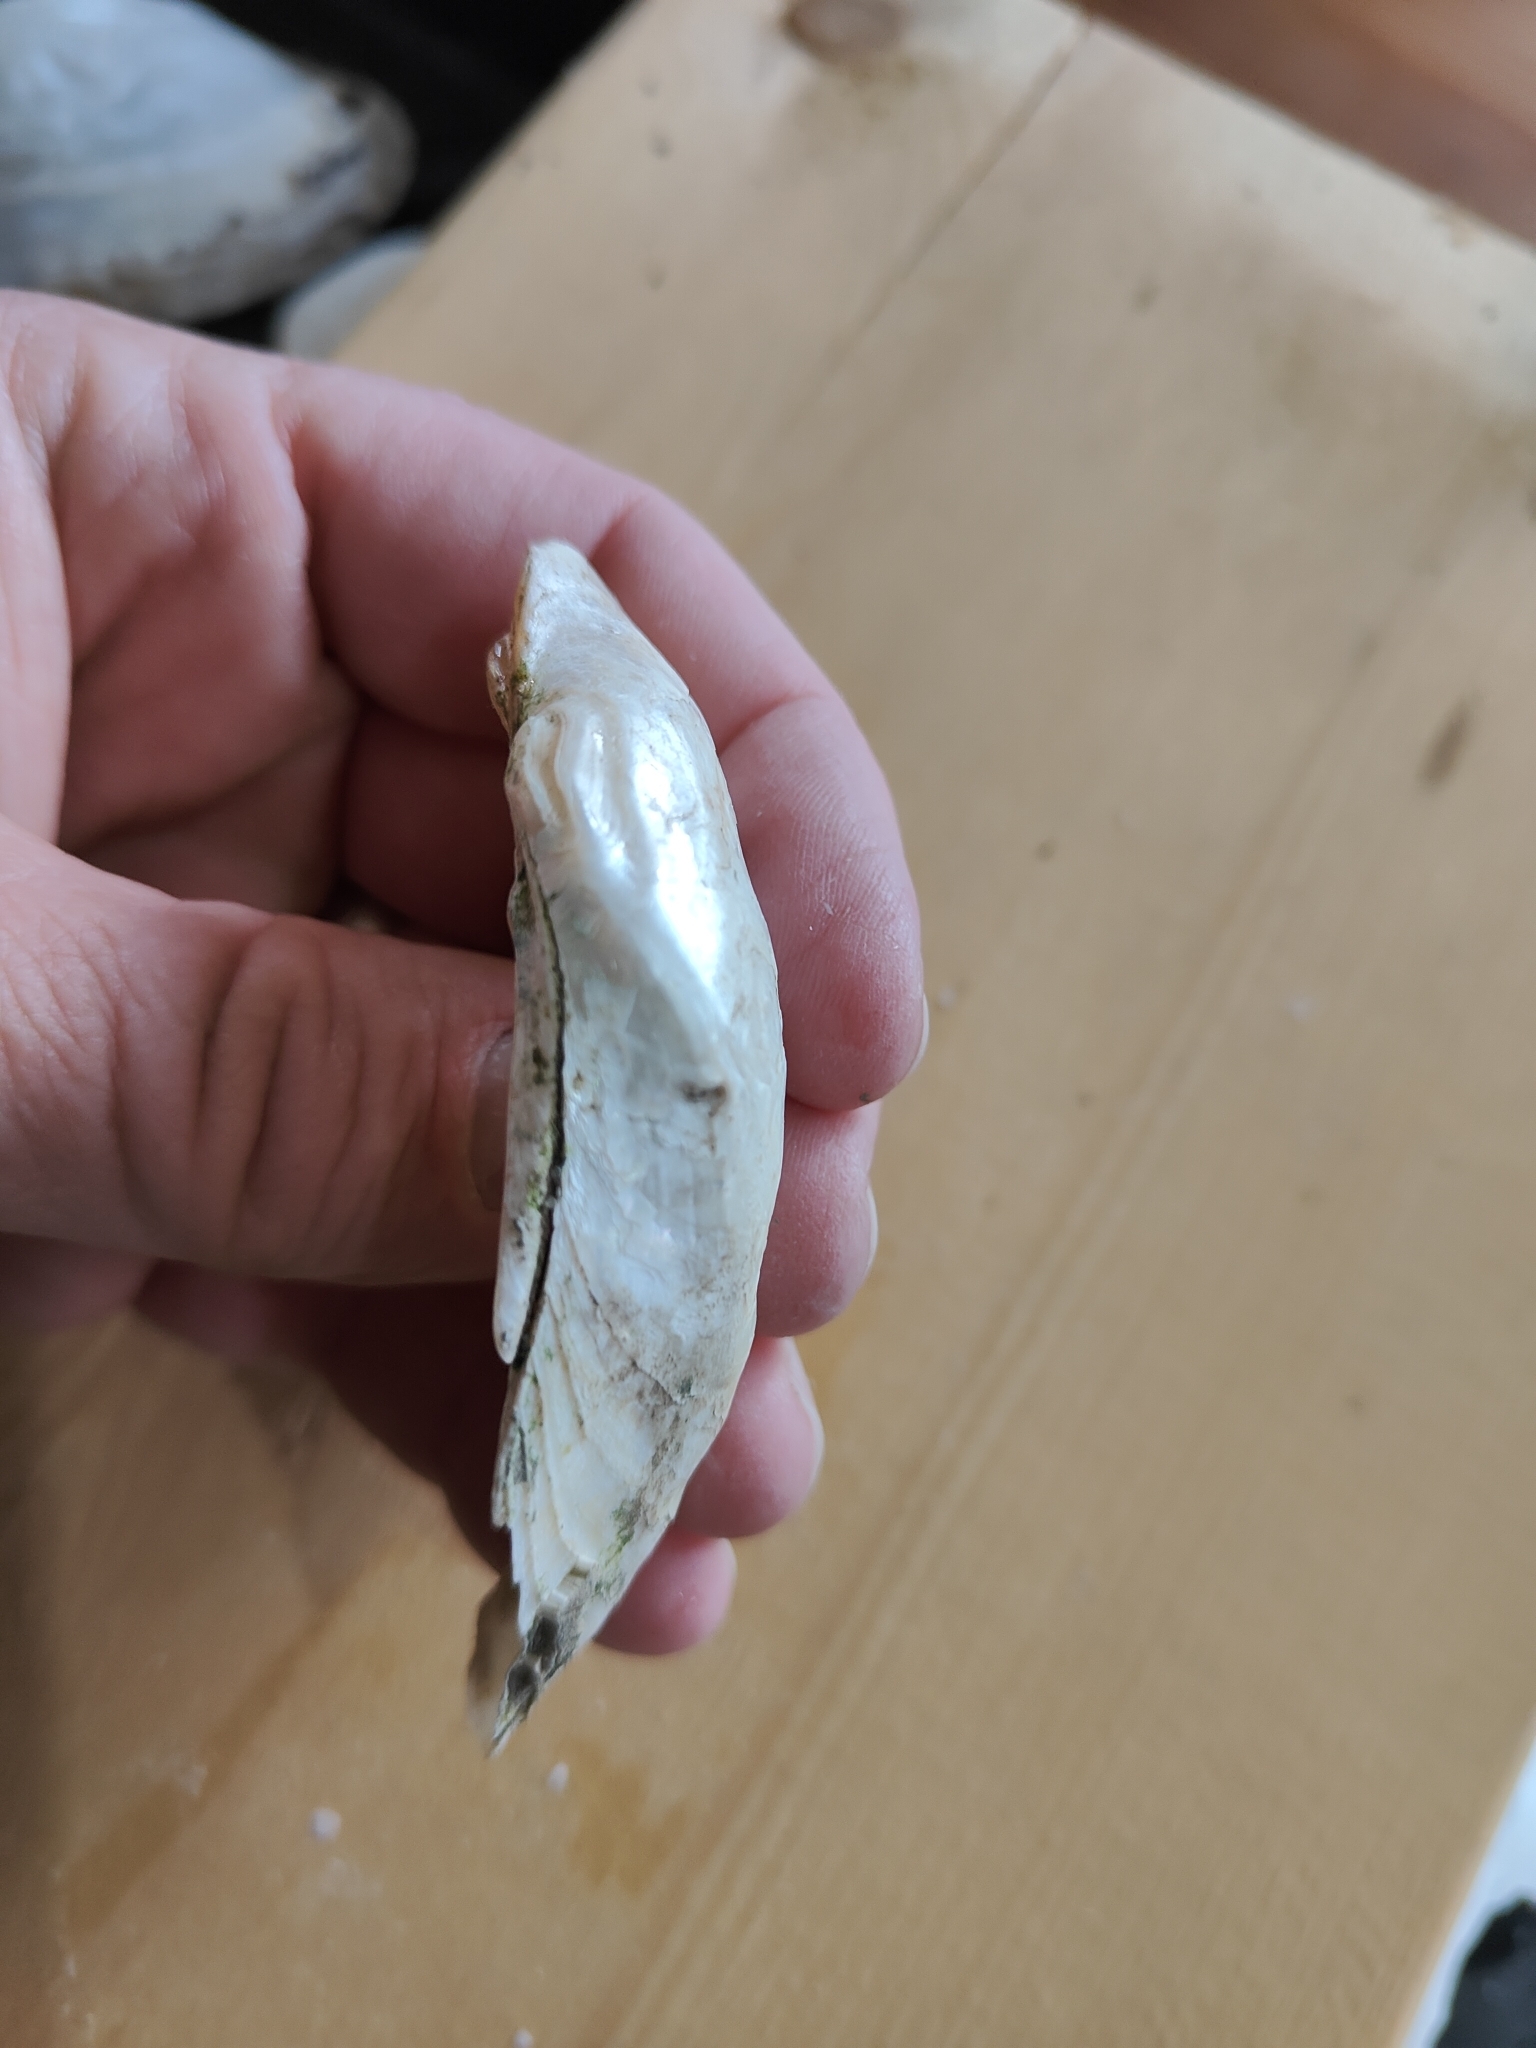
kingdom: Animalia
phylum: Mollusca
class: Bivalvia
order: Unionida
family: Unionidae
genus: Alasmidonta
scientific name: Alasmidonta marginata
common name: Elktoe
